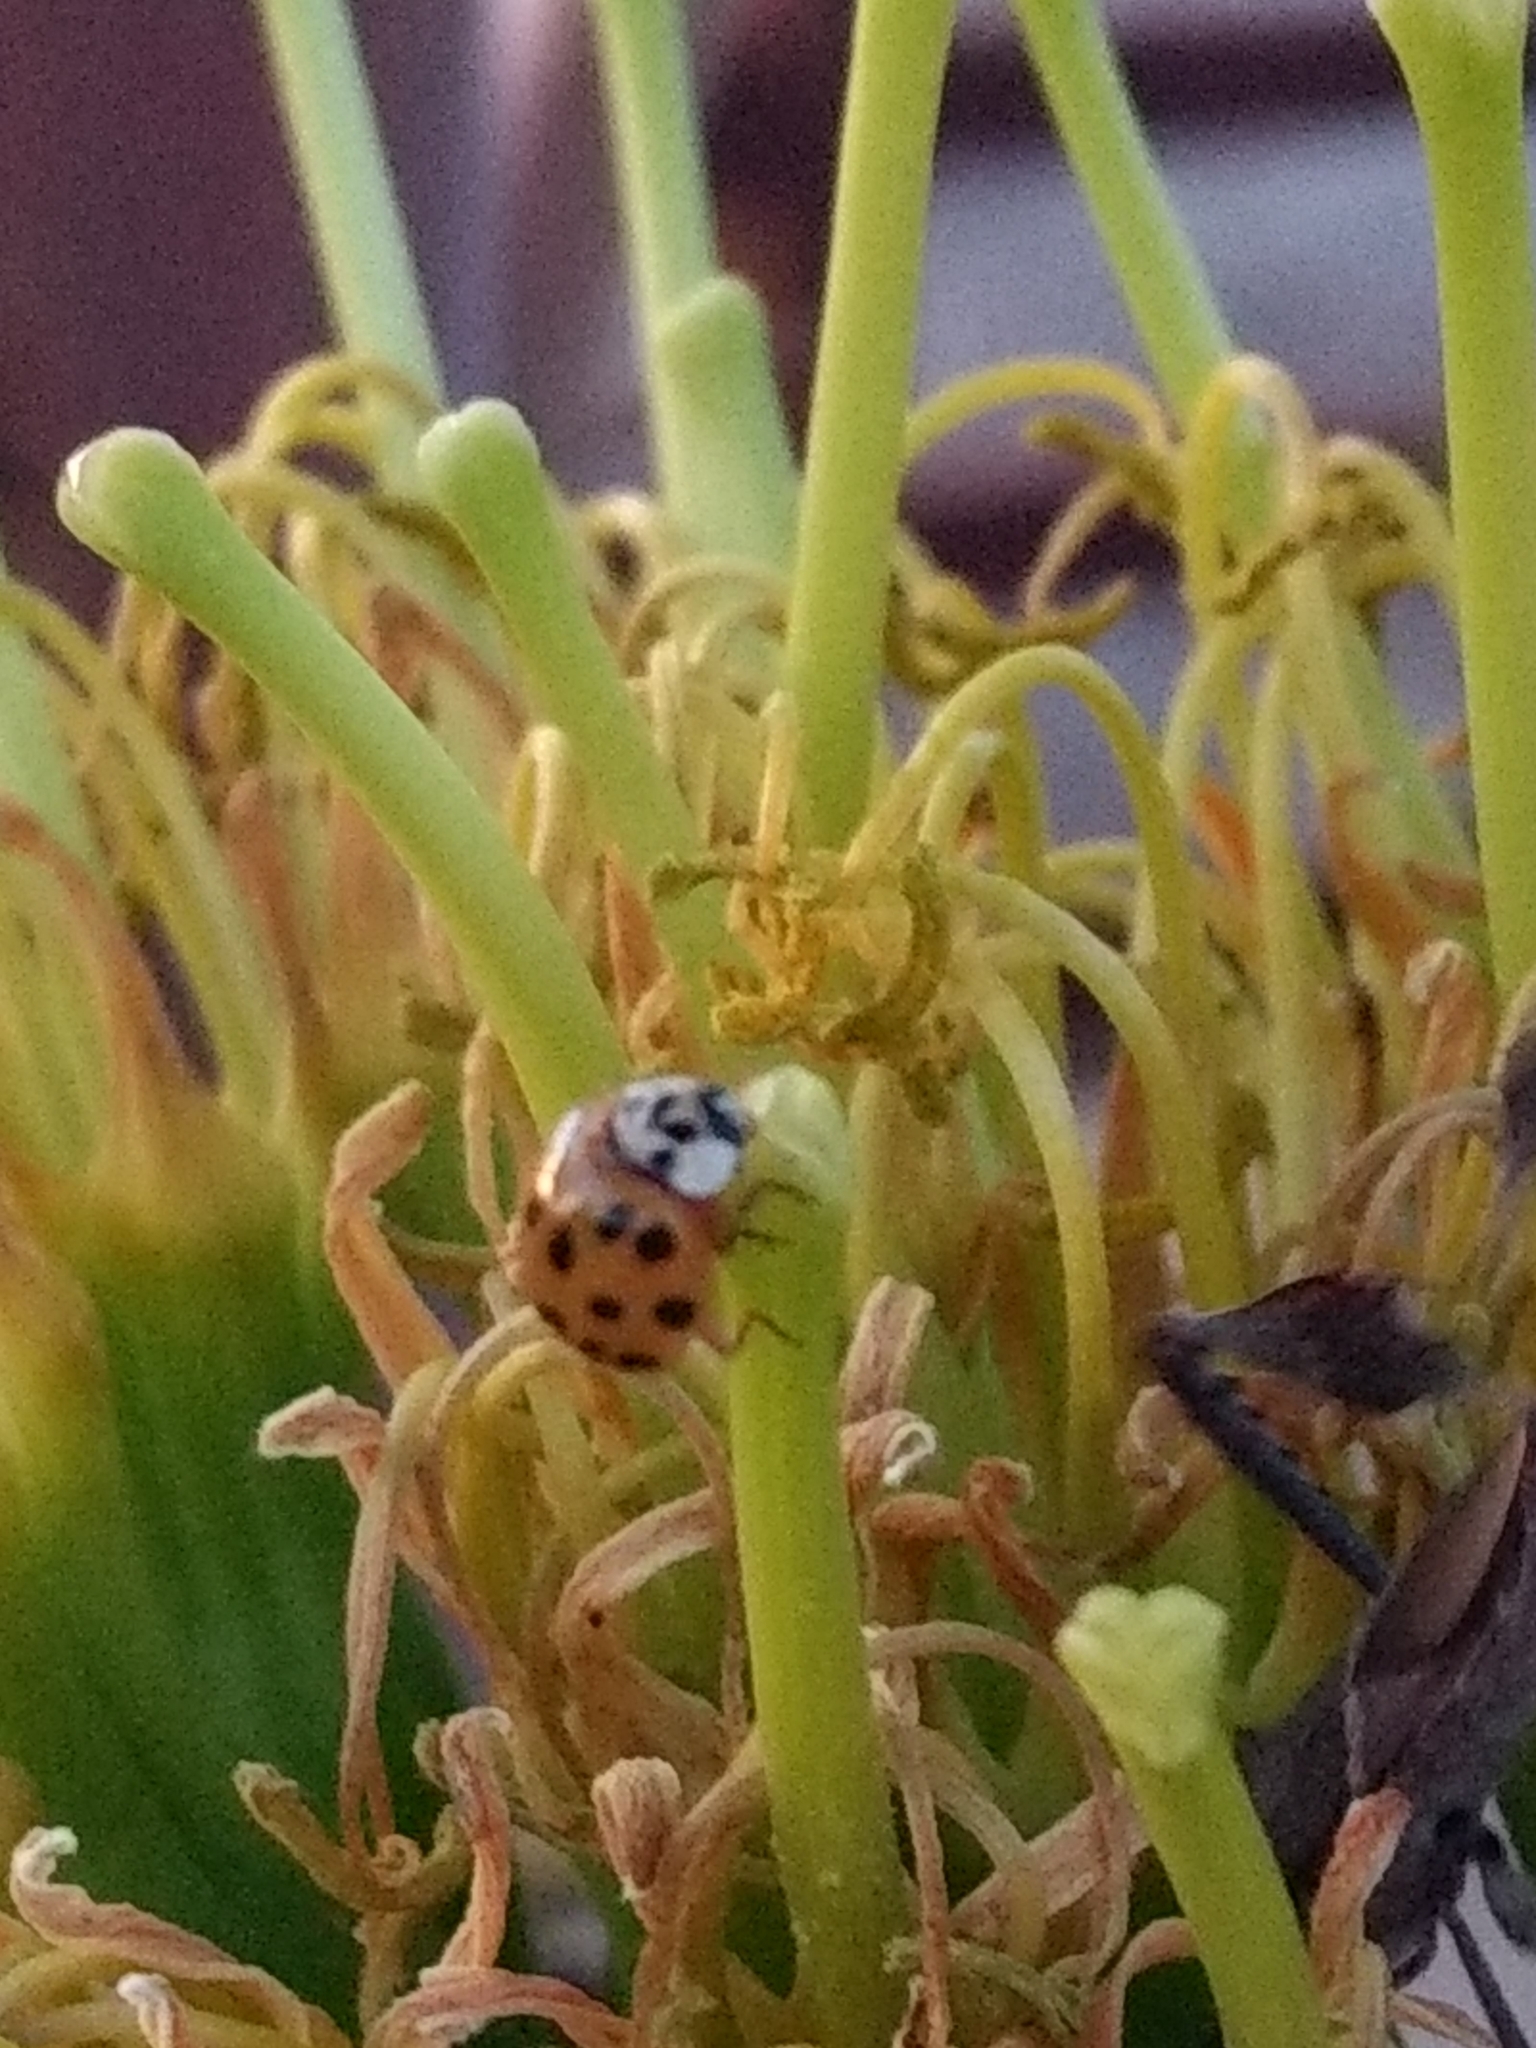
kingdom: Animalia
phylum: Arthropoda
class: Insecta
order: Coleoptera
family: Coccinellidae
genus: Harmonia
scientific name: Harmonia axyridis
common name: Harlequin ladybird
